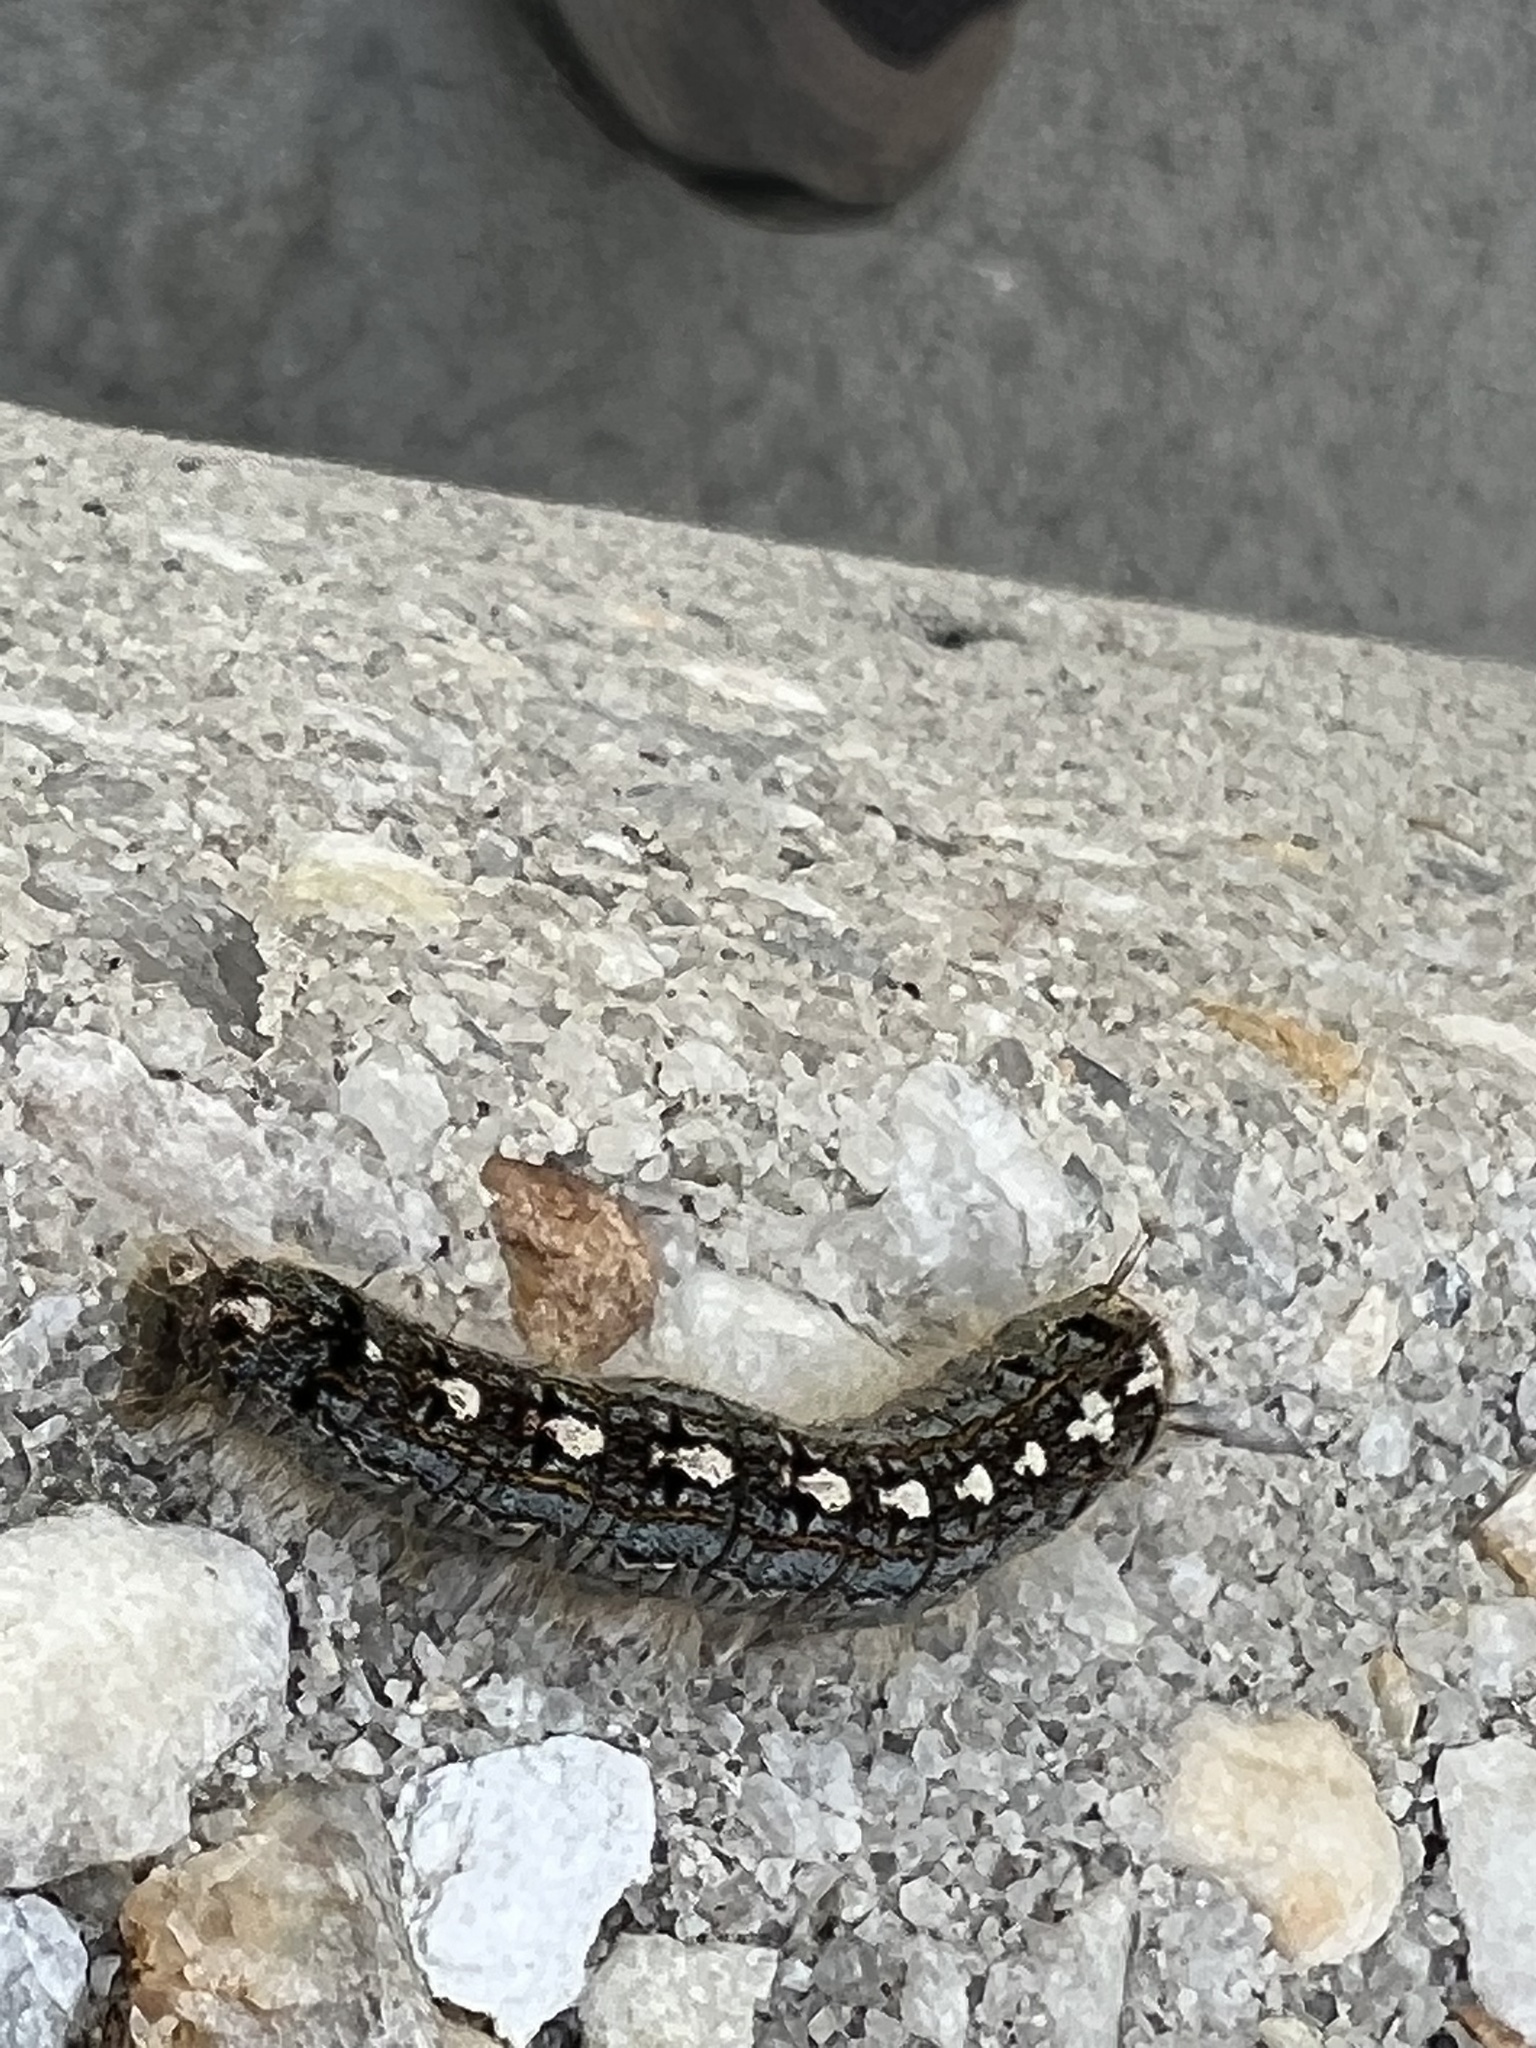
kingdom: Animalia
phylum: Arthropoda
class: Insecta
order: Lepidoptera
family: Lasiocampidae
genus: Malacosoma
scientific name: Malacosoma disstria
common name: Forest tent caterpillar
